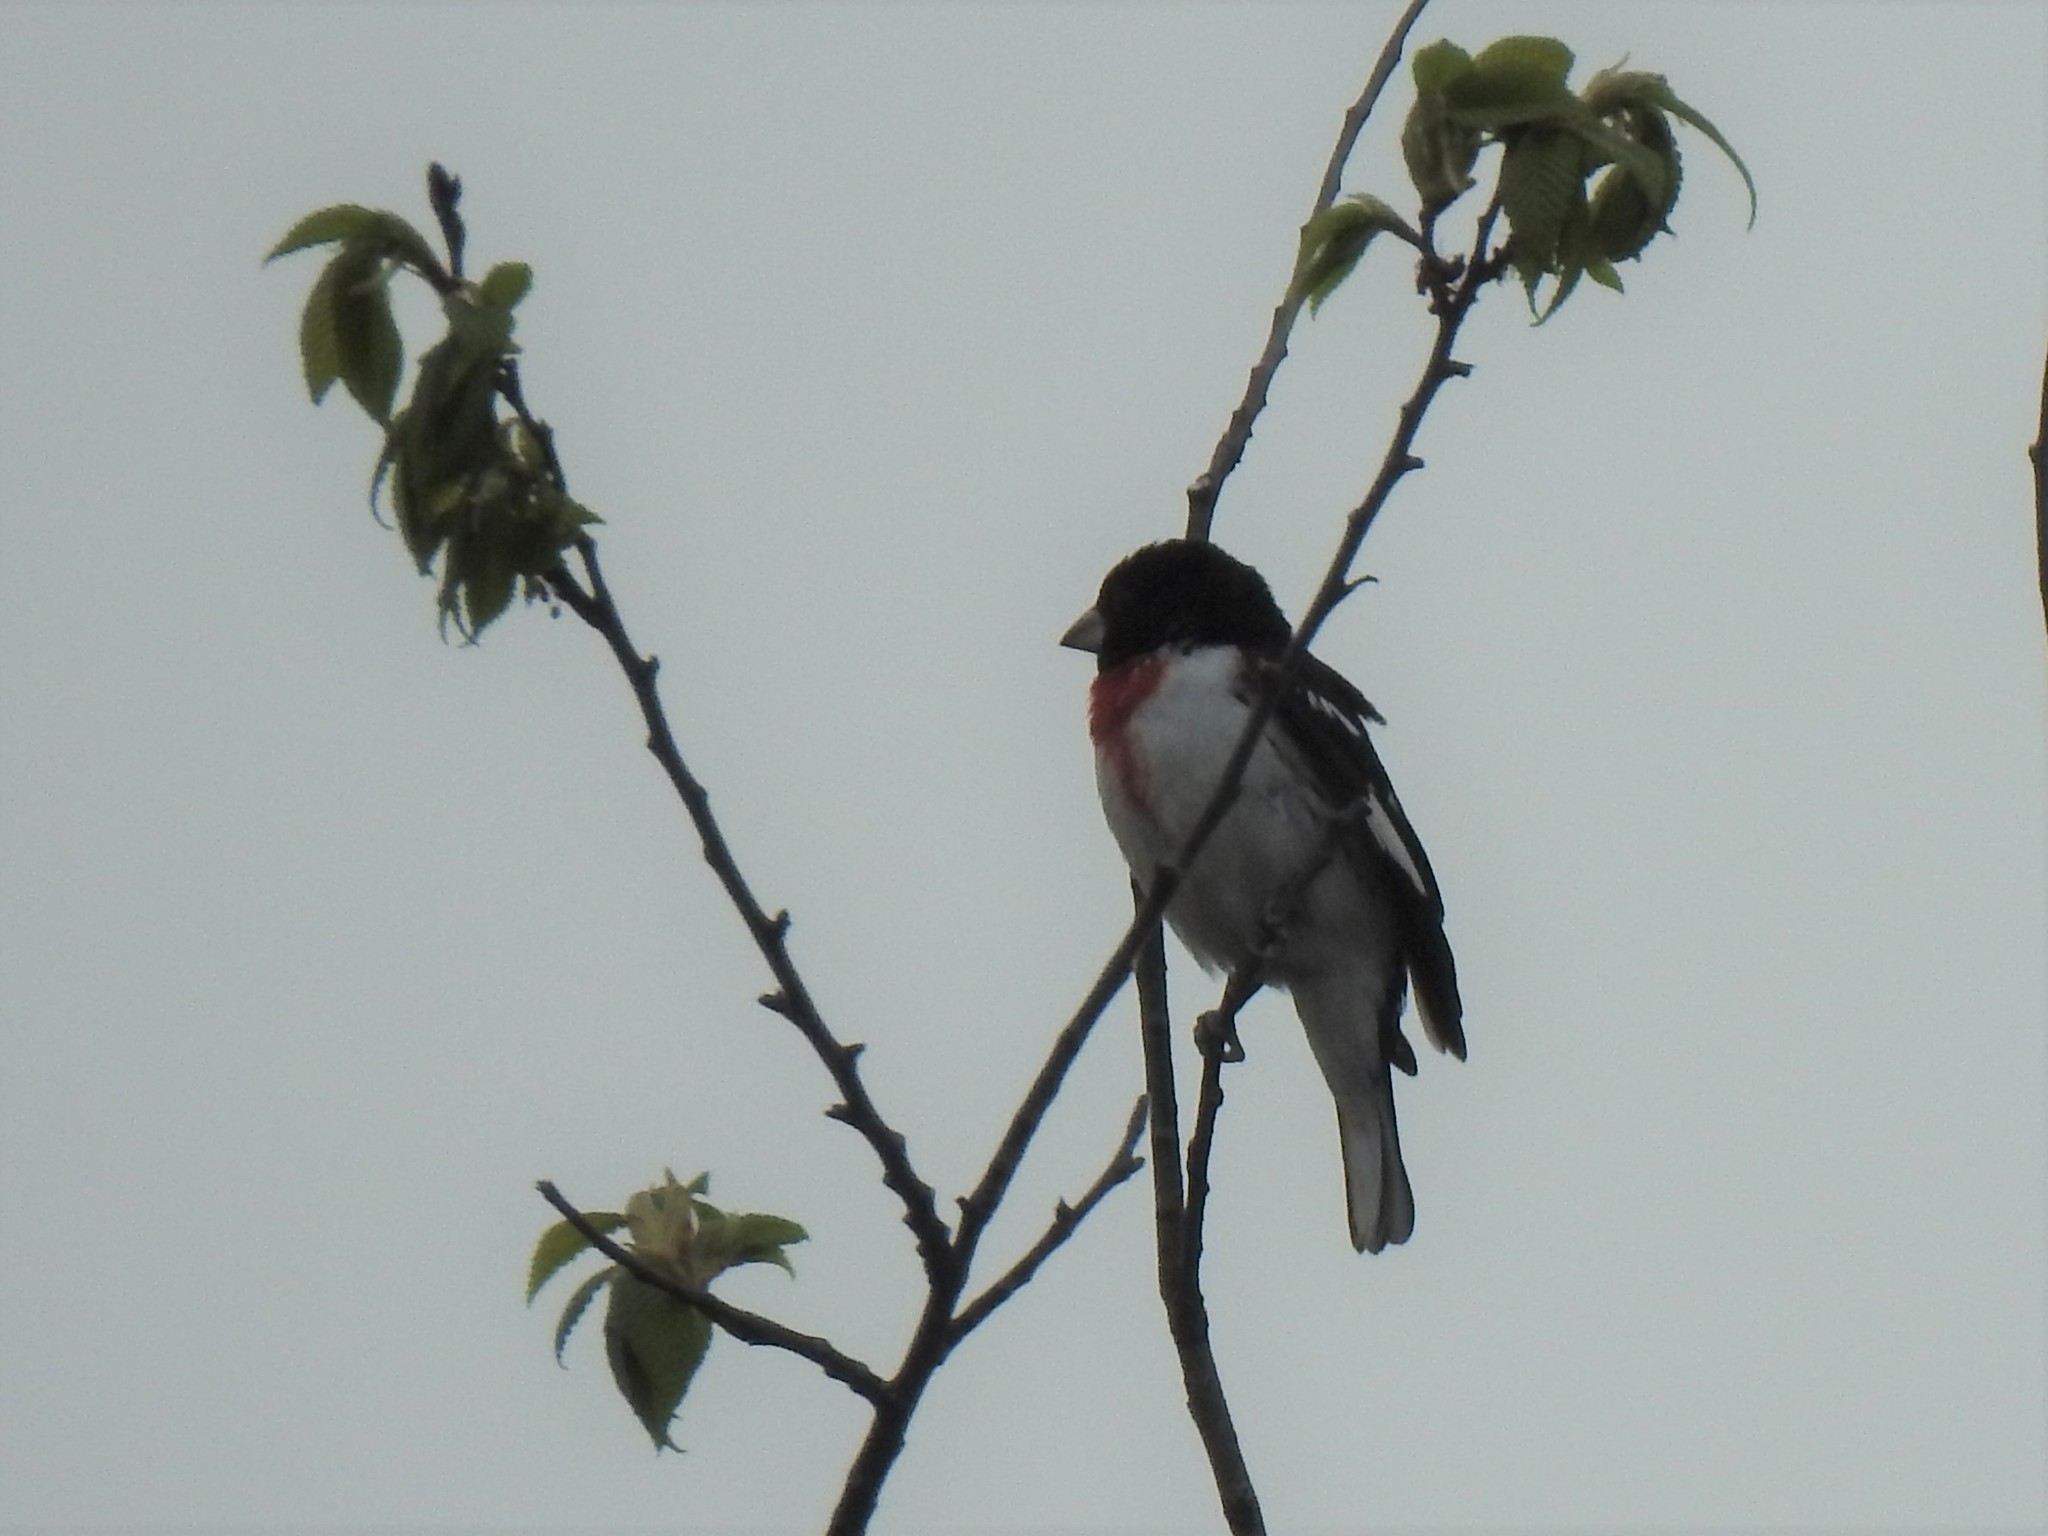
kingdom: Animalia
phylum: Chordata
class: Aves
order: Passeriformes
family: Cardinalidae
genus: Pheucticus
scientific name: Pheucticus ludovicianus
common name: Rose-breasted grosbeak
